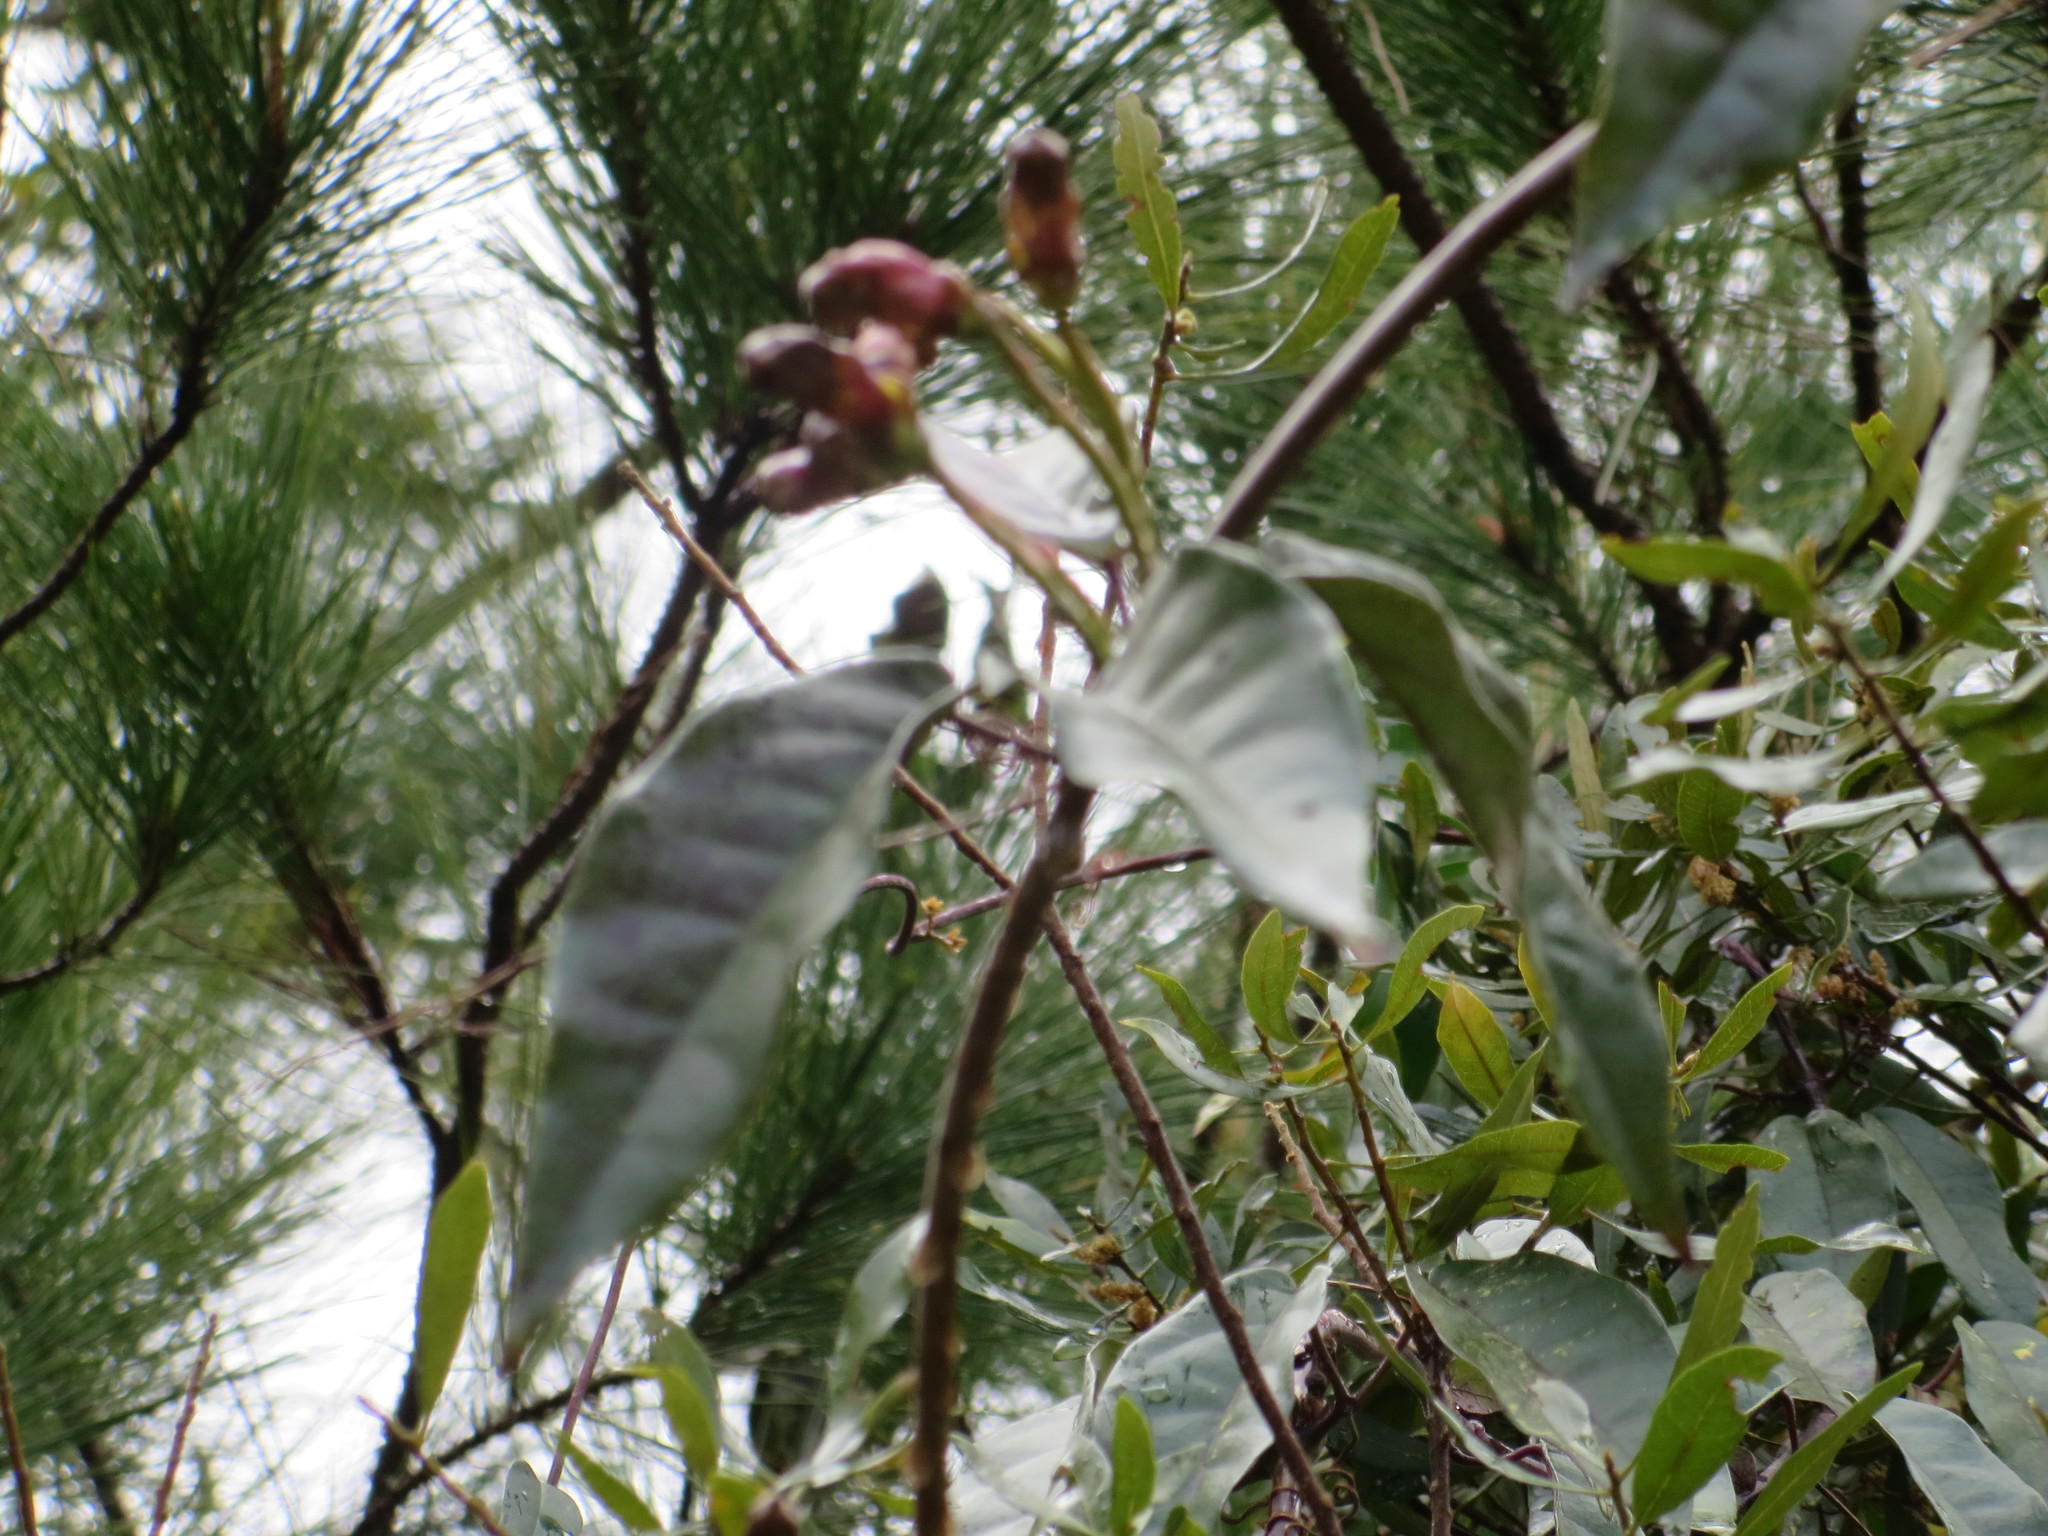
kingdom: Plantae
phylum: Tracheophyta
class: Magnoliopsida
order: Lamiales
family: Bignoniaceae
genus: Bignonia
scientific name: Bignonia capreolata
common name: Crossvine
